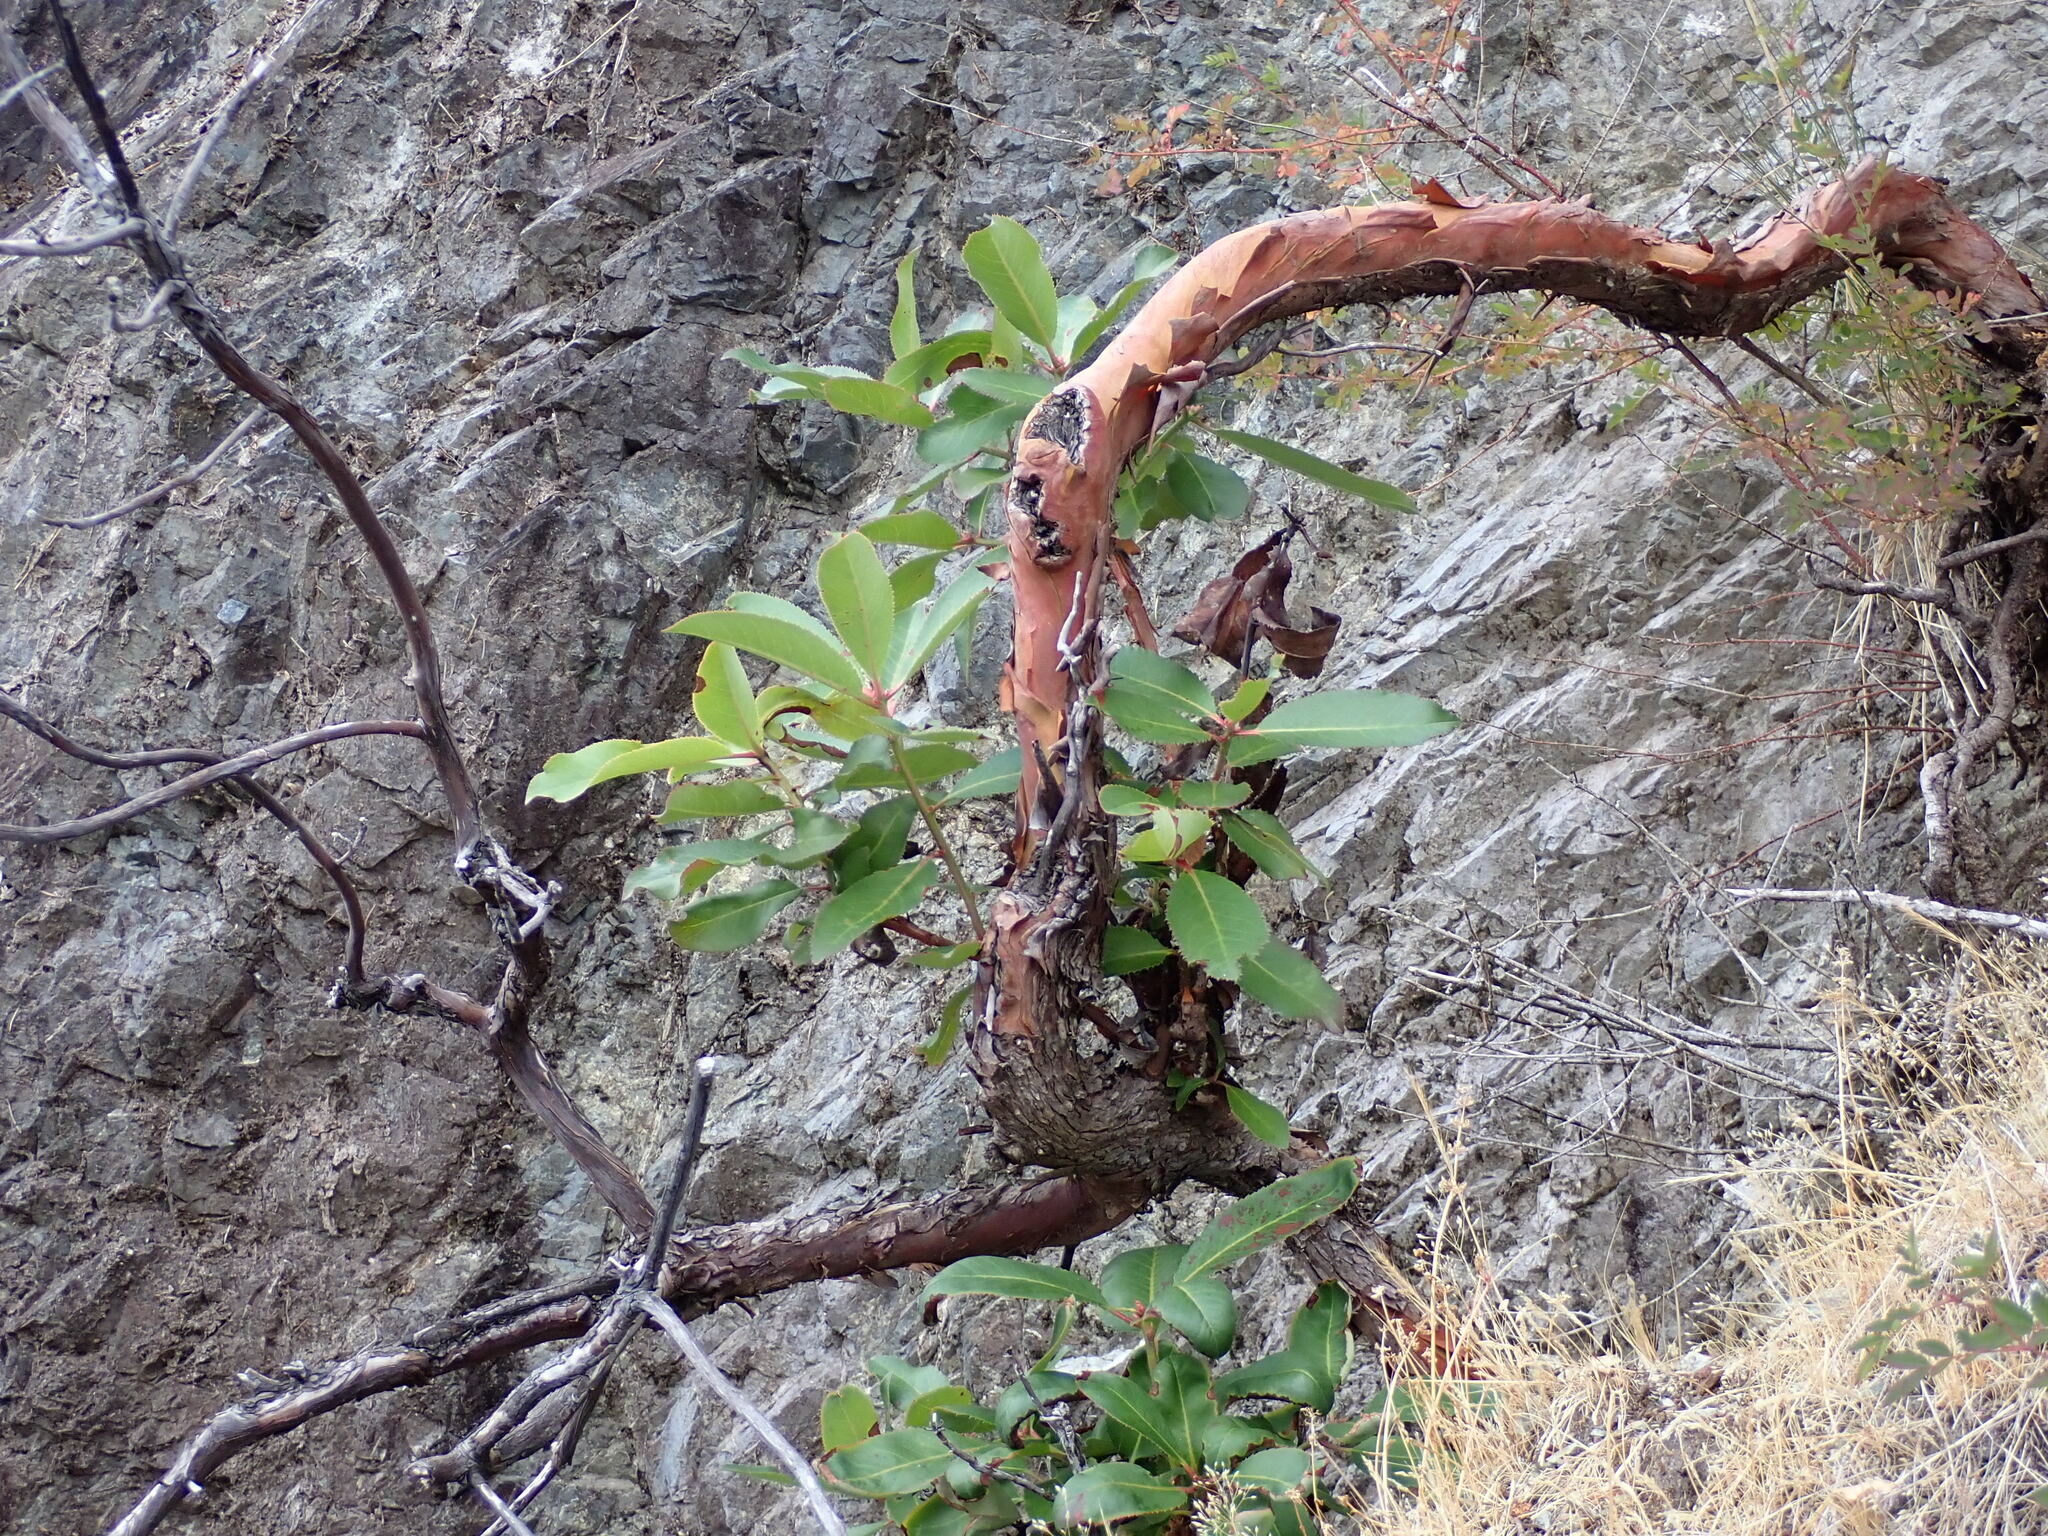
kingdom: Plantae
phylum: Tracheophyta
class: Magnoliopsida
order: Ericales
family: Ericaceae
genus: Arbutus
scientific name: Arbutus menziesii
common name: Pacific madrone
